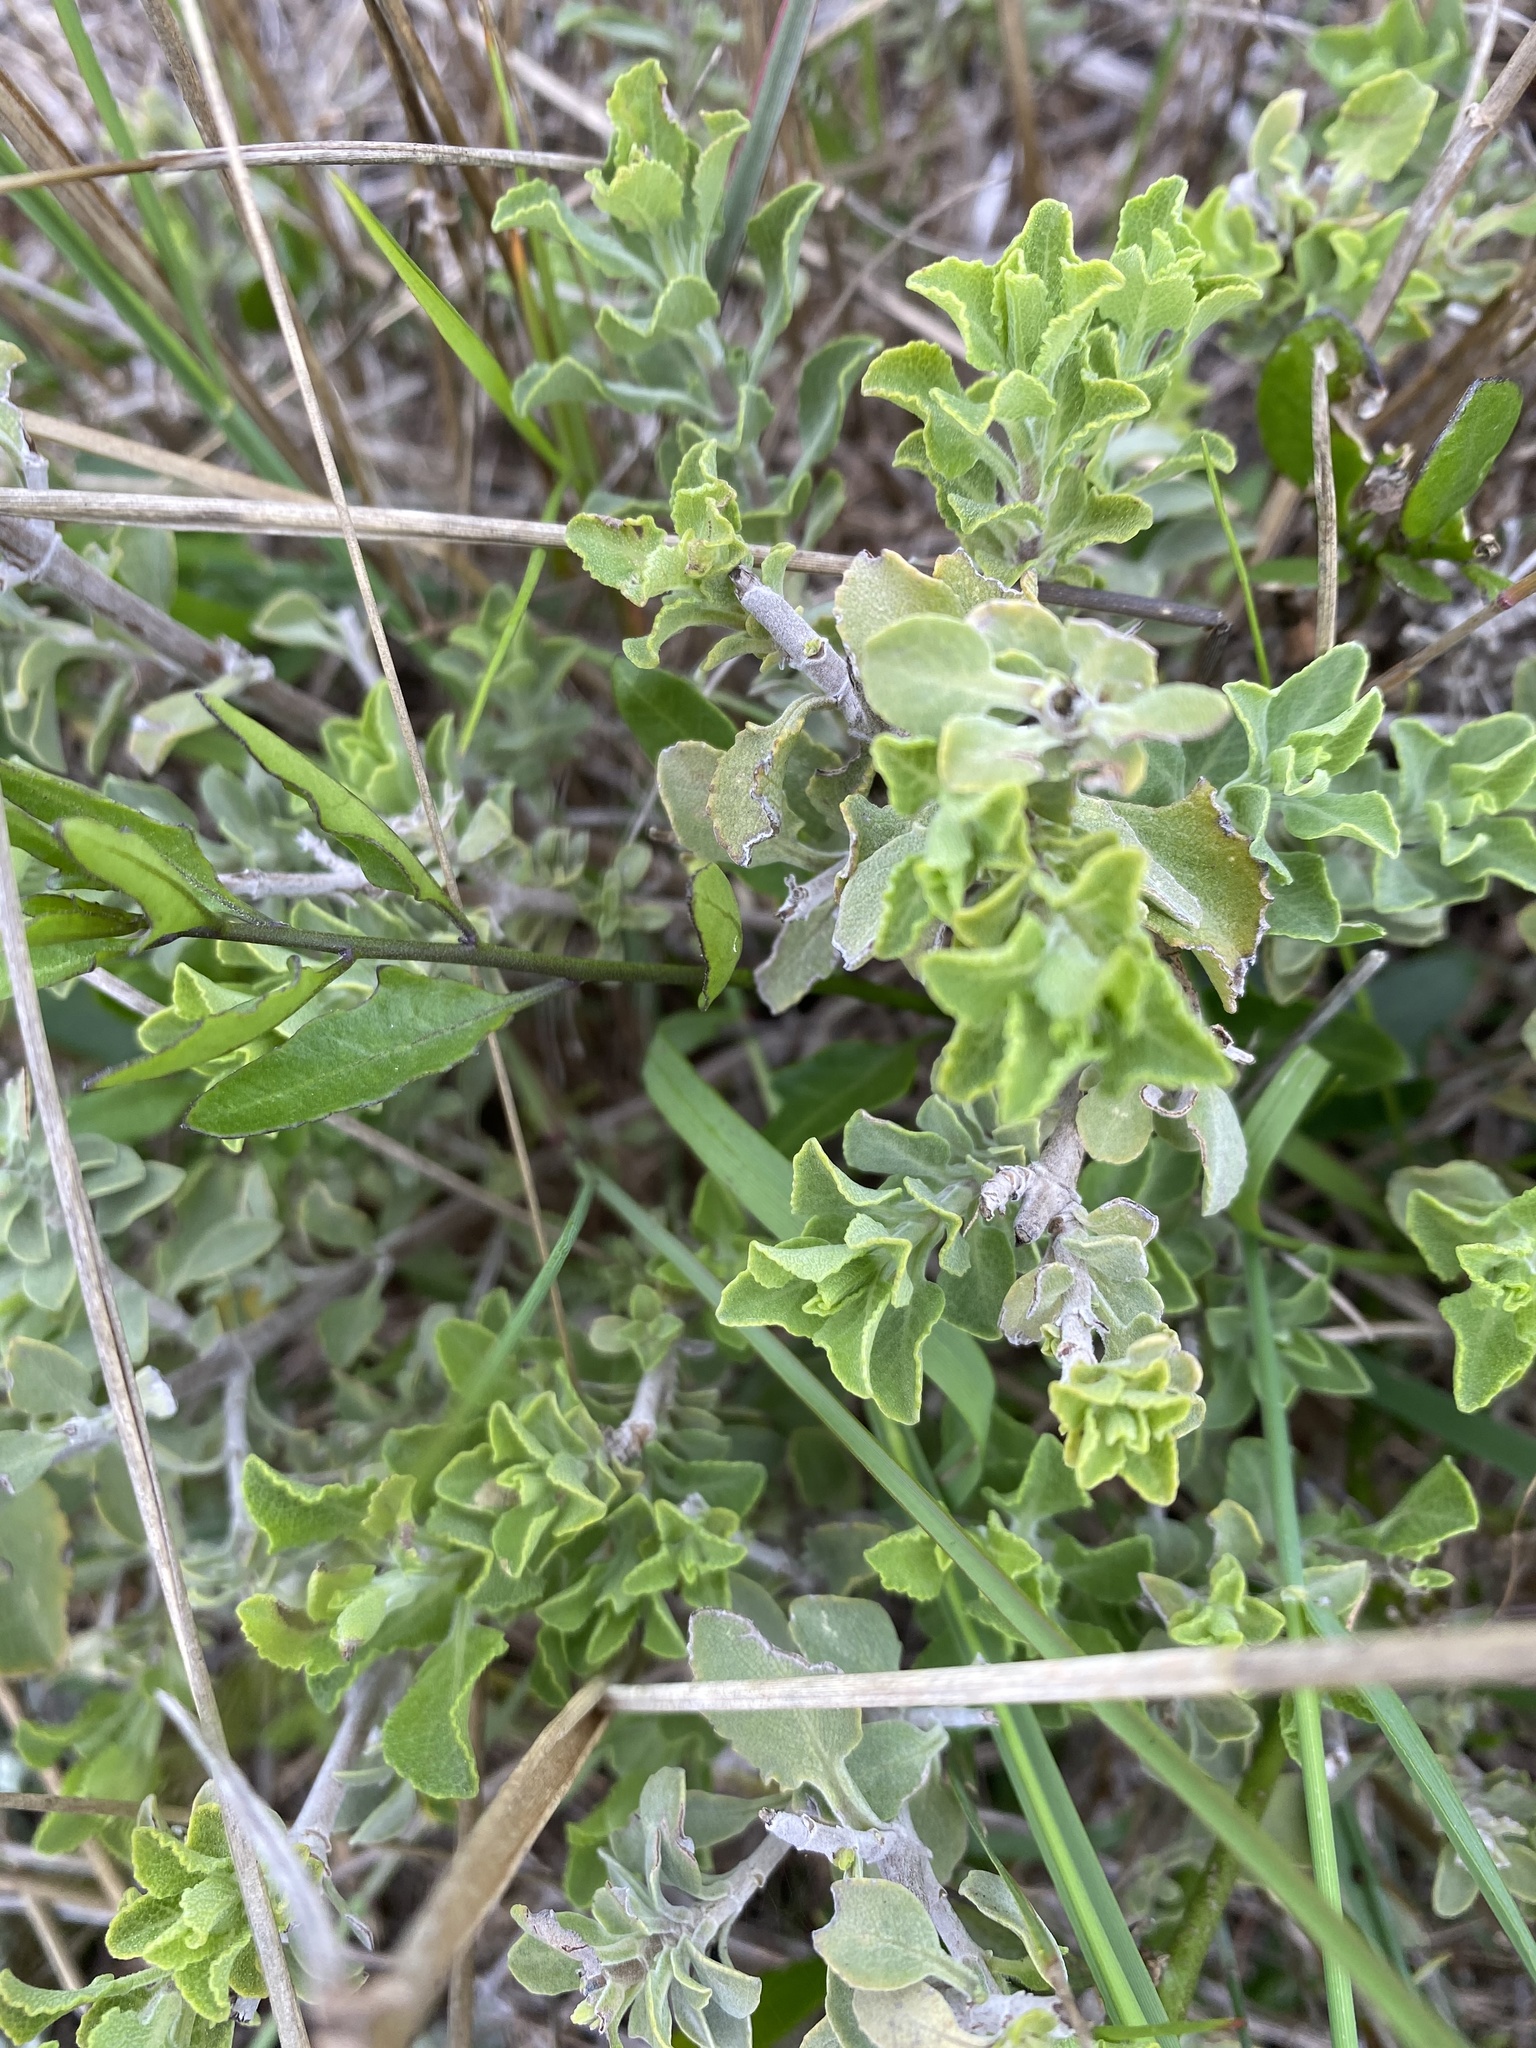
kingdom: Plantae
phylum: Tracheophyta
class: Magnoliopsida
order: Lamiales
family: Lamiaceae
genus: Salvia
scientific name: Salvia aurea
